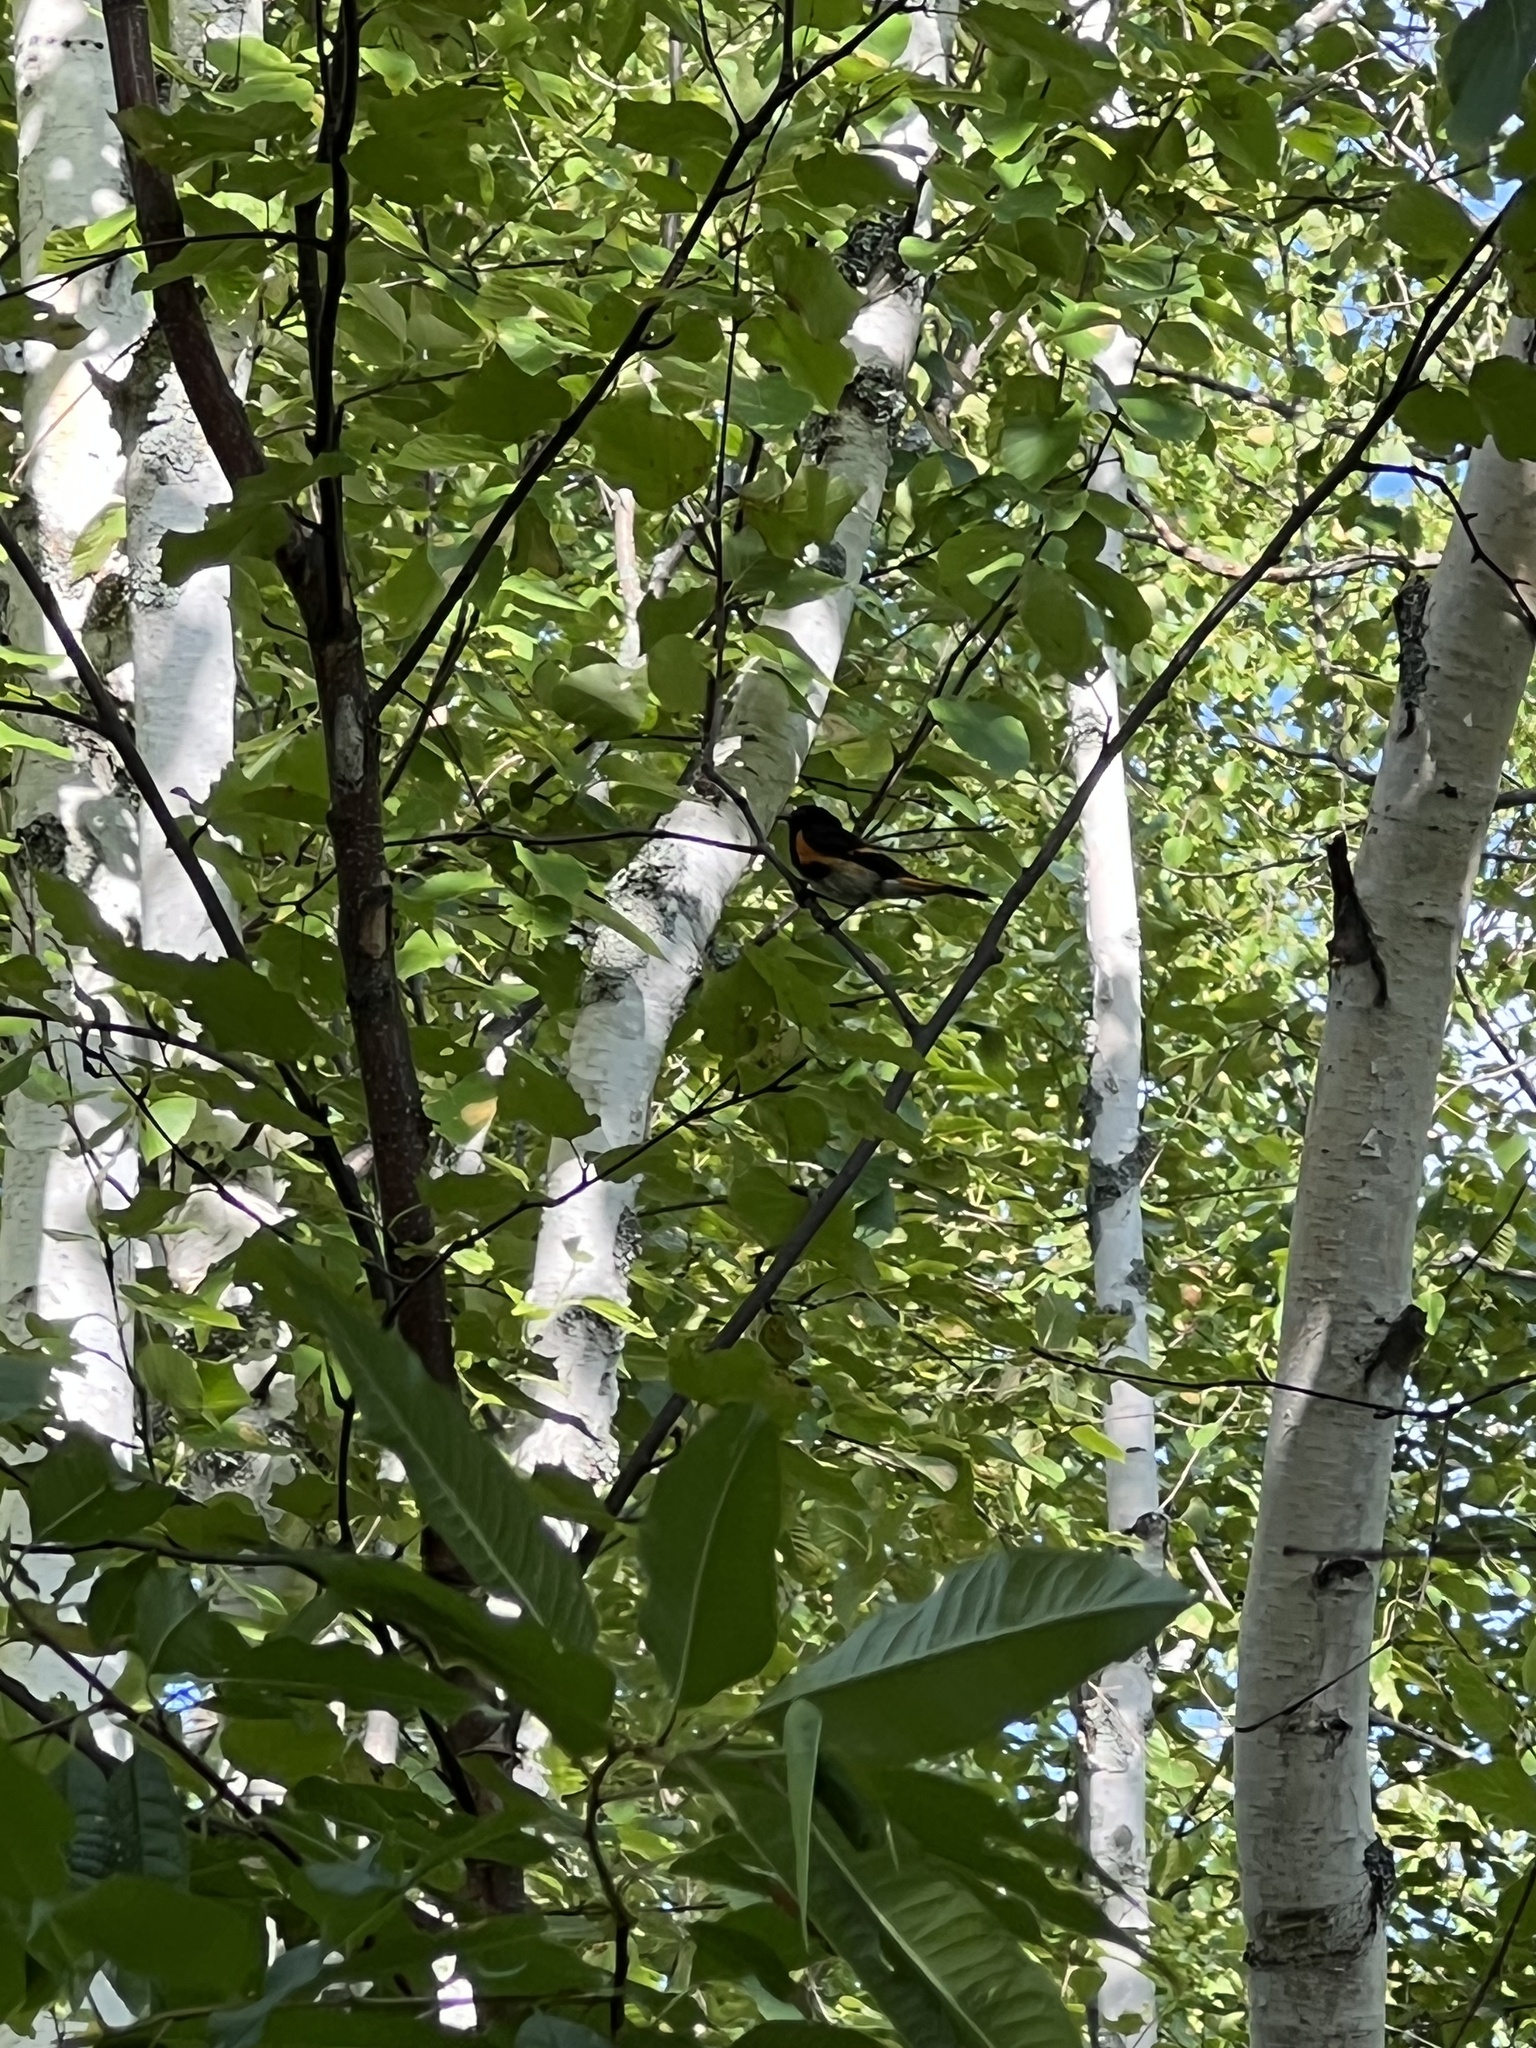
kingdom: Animalia
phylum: Chordata
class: Aves
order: Passeriformes
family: Parulidae
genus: Setophaga
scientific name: Setophaga ruticilla
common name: American redstart
